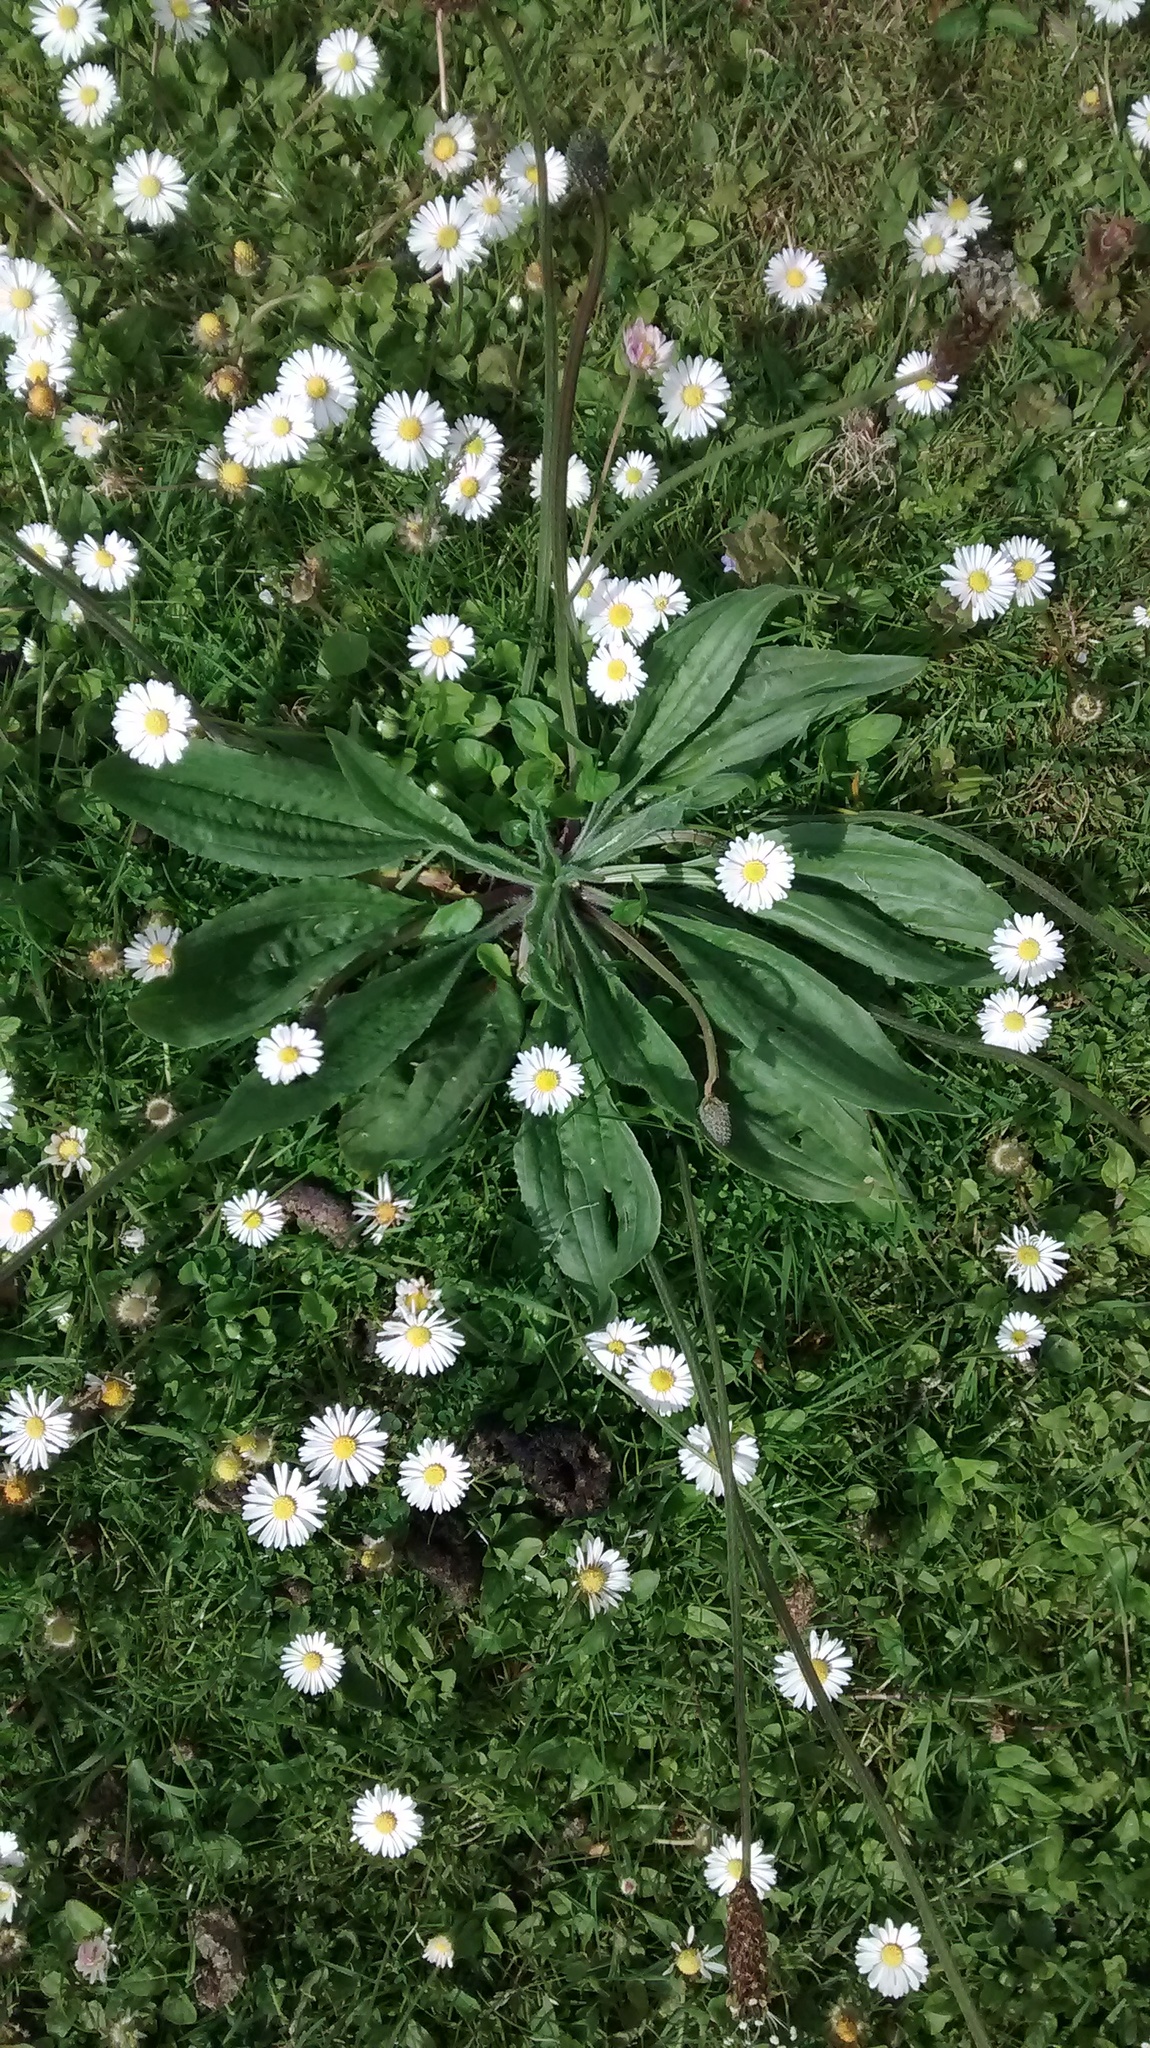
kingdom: Plantae
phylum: Tracheophyta
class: Magnoliopsida
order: Lamiales
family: Plantaginaceae
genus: Plantago
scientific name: Plantago lanceolata
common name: Ribwort plantain
